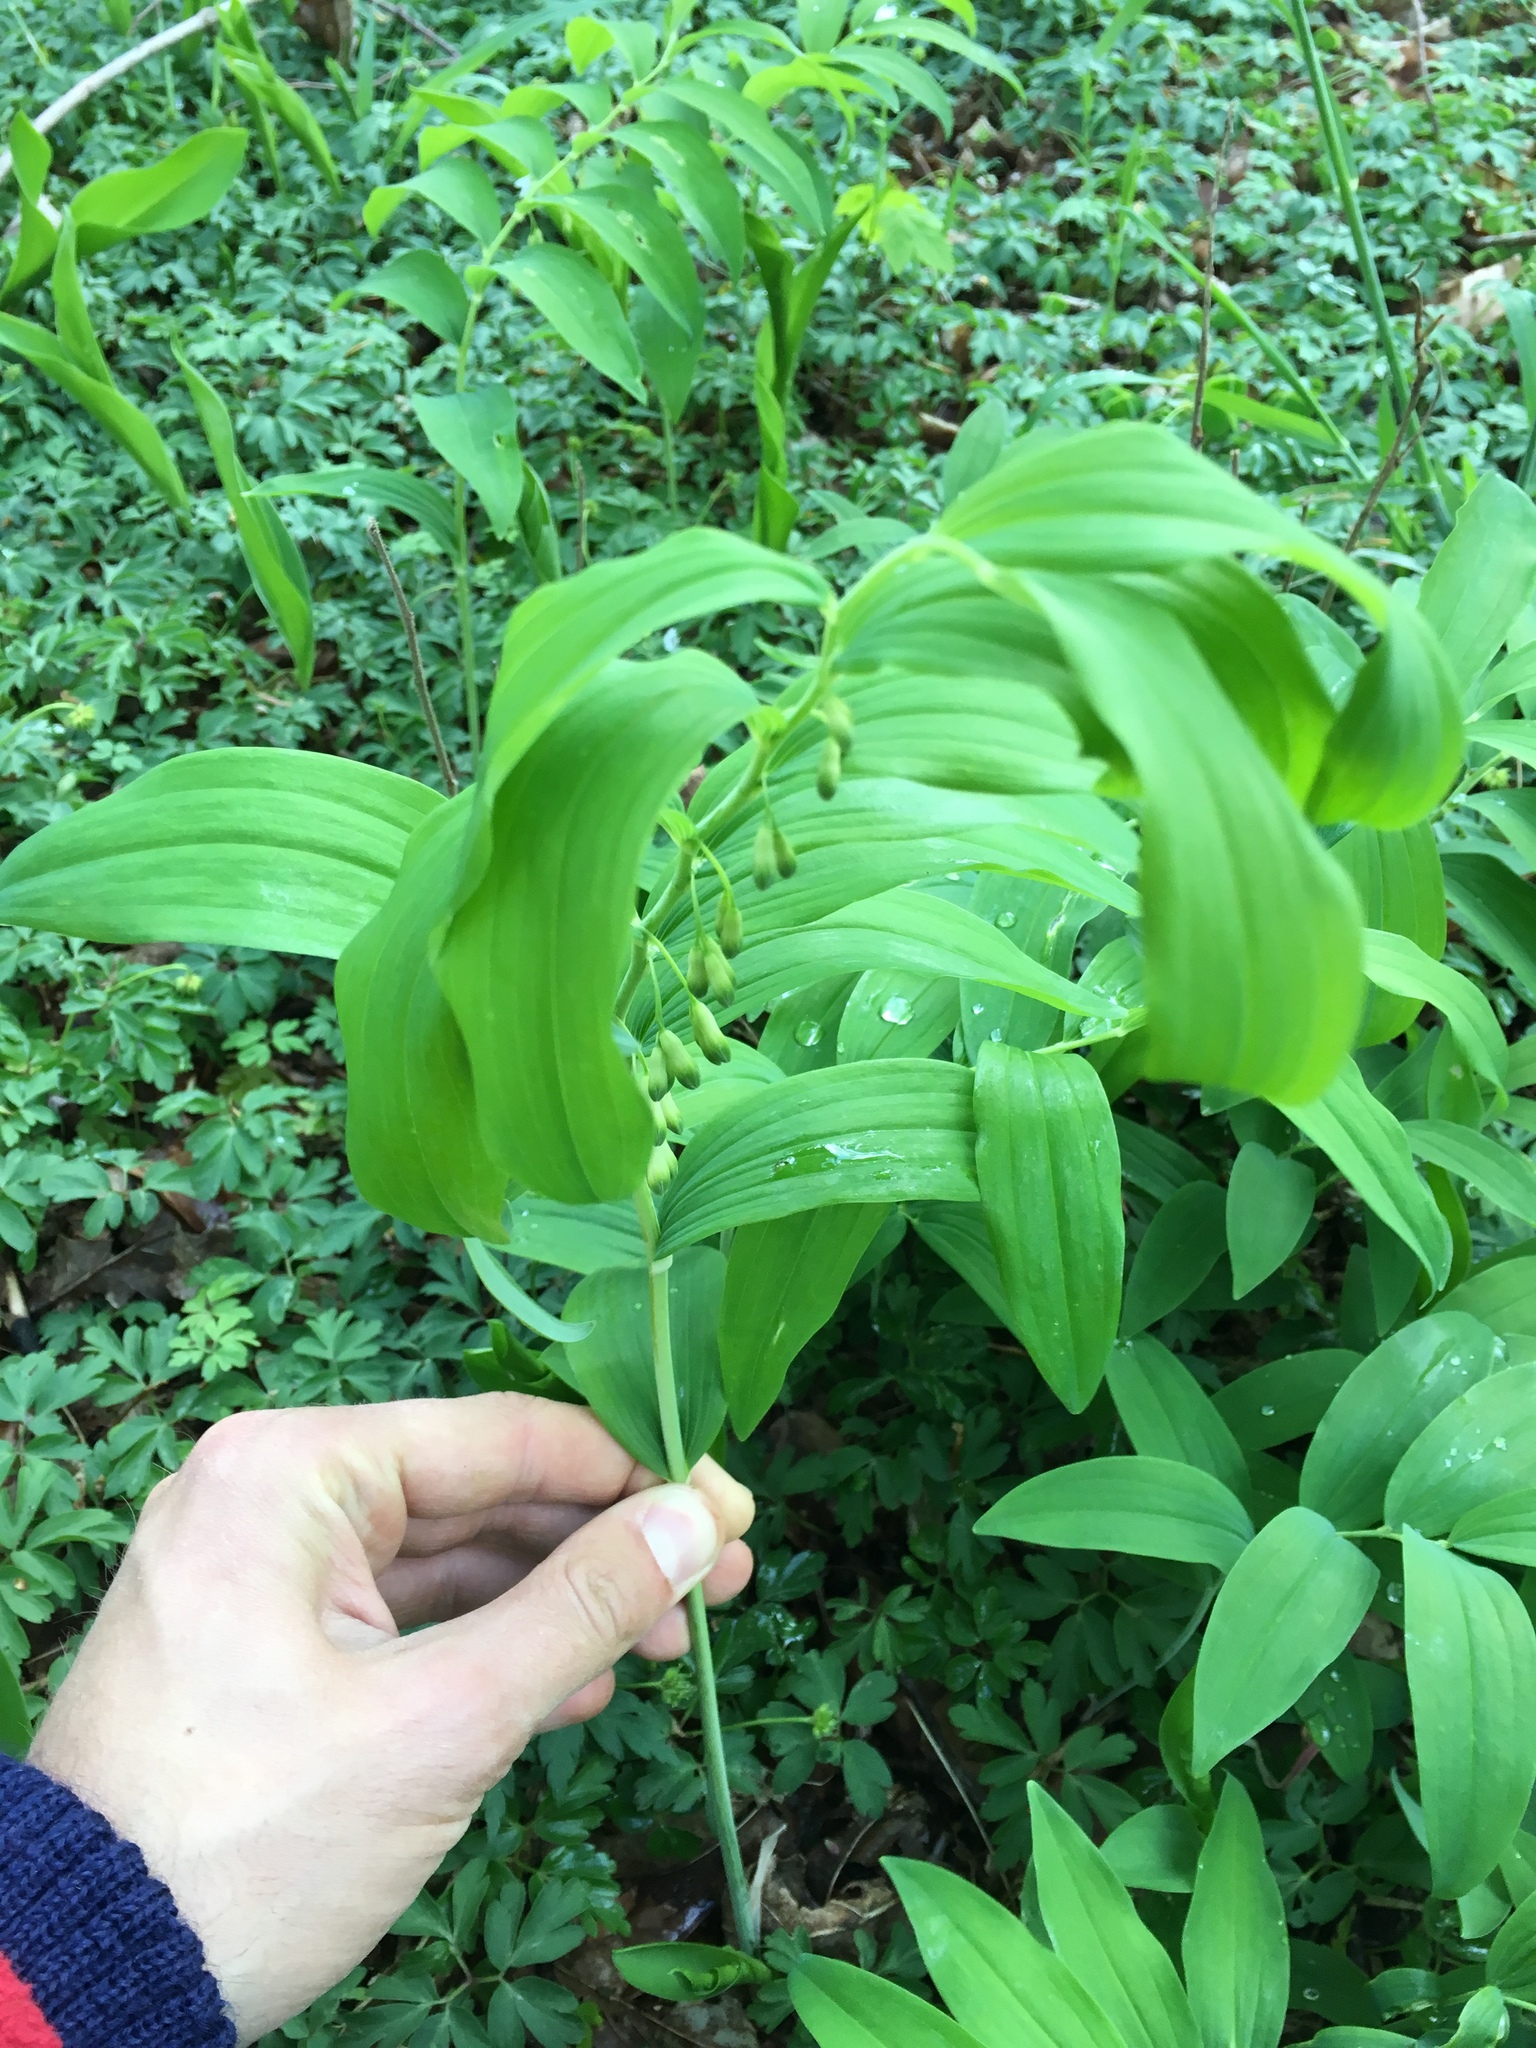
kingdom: Plantae
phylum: Tracheophyta
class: Liliopsida
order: Asparagales
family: Asparagaceae
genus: Polygonatum
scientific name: Polygonatum multiflorum
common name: Solomon's-seal
